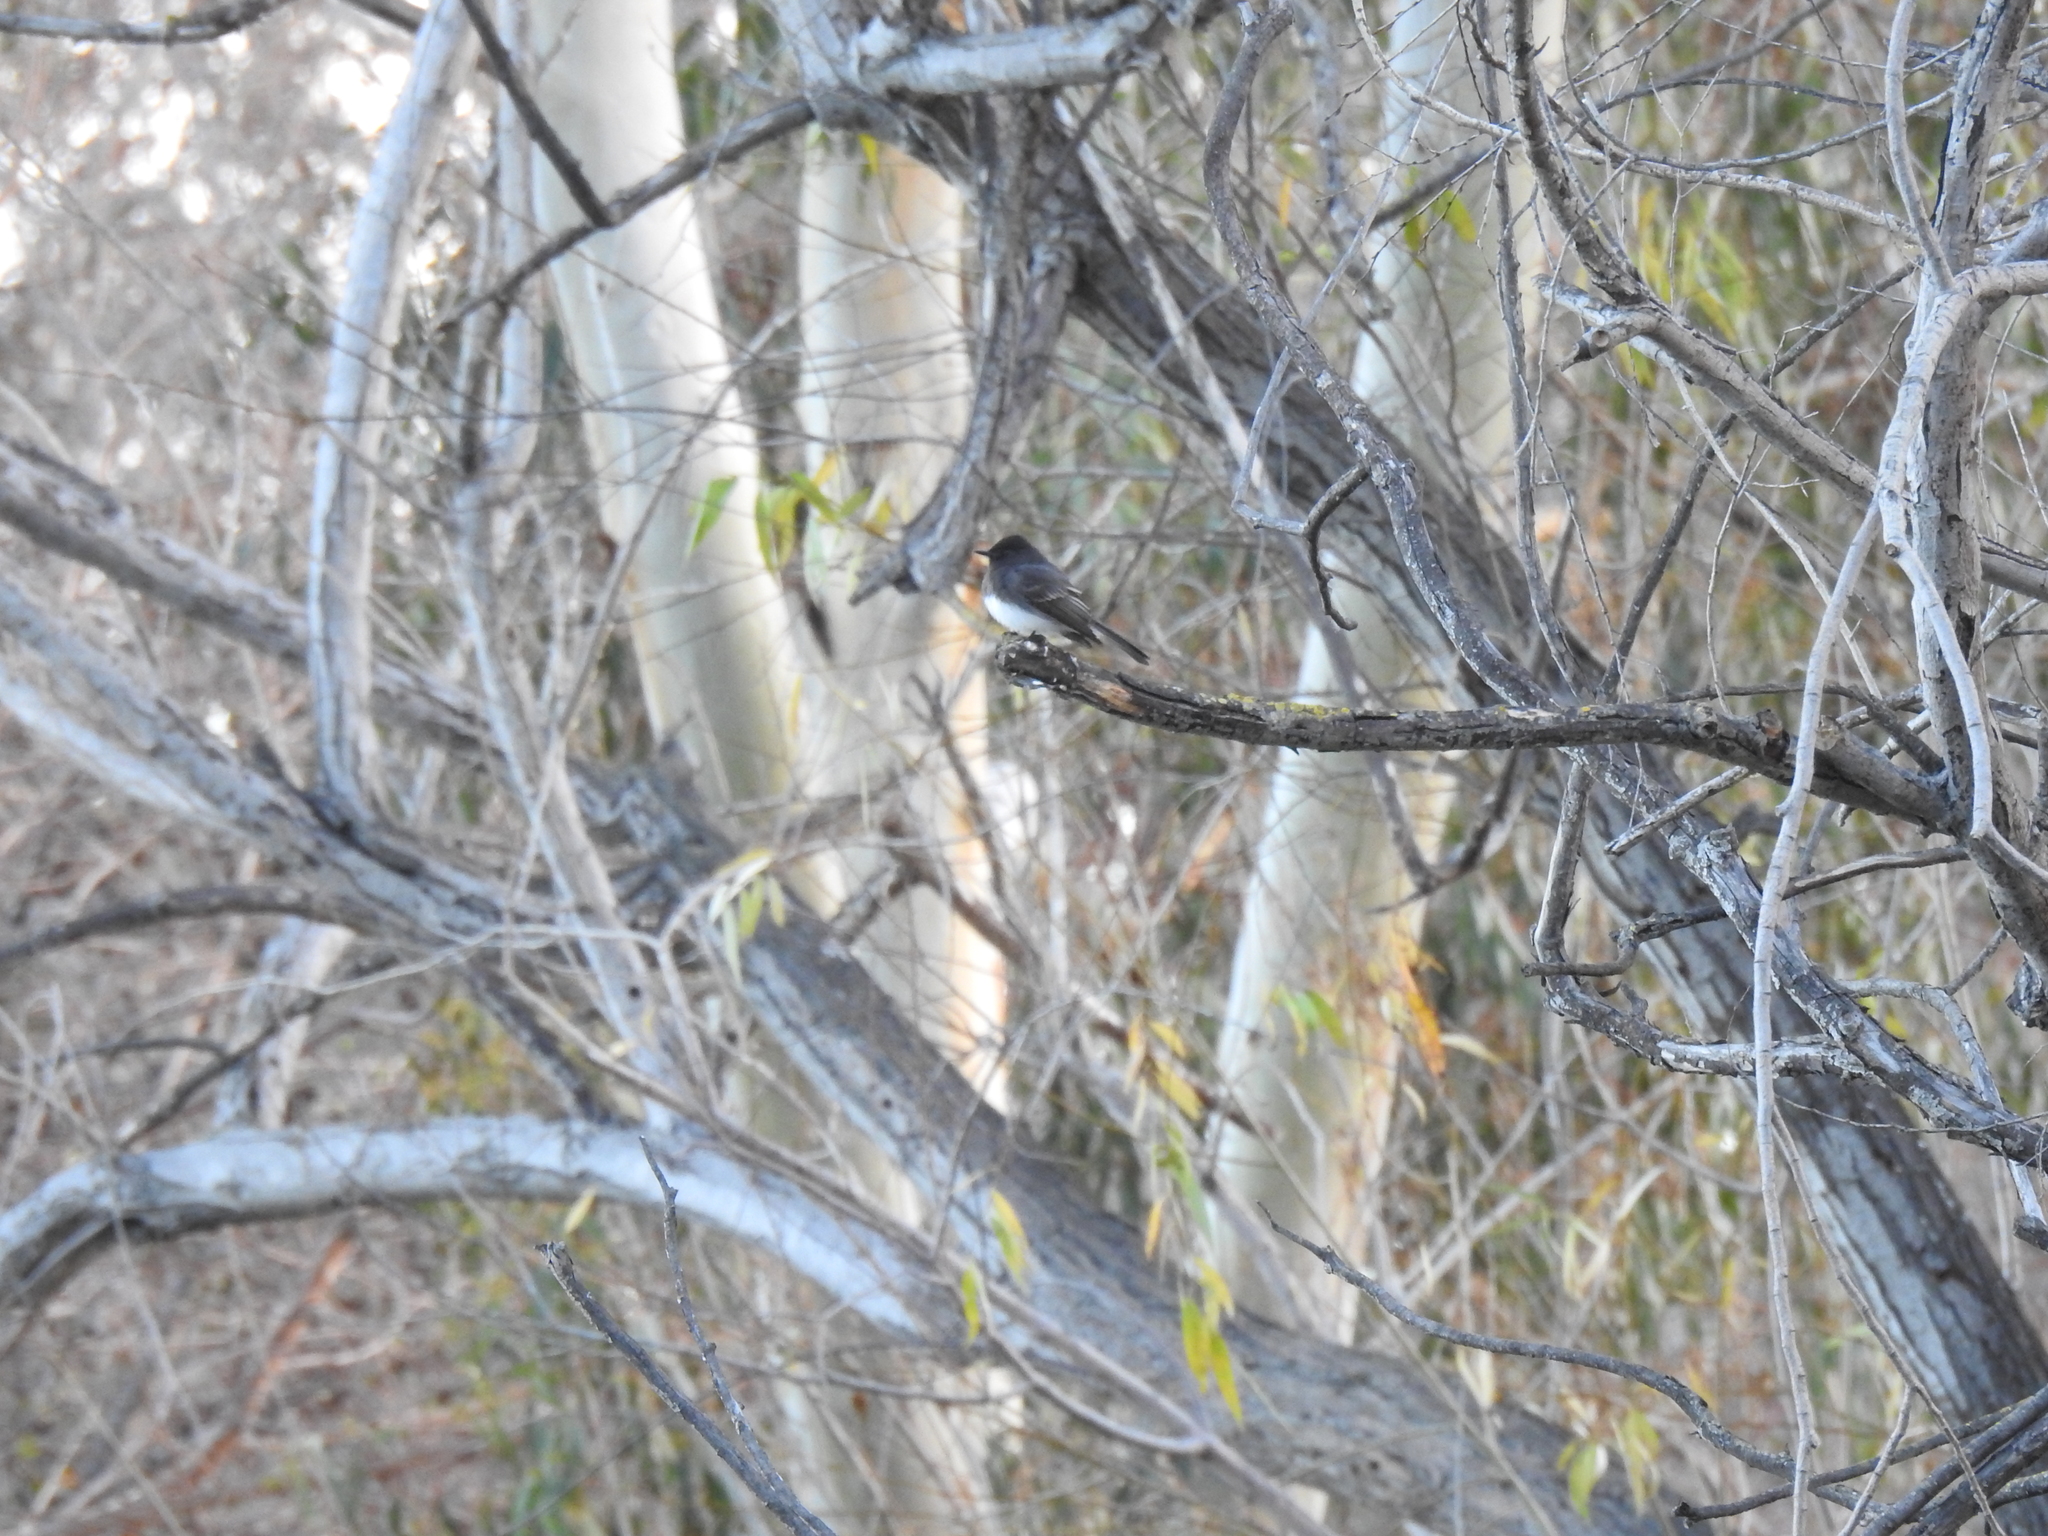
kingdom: Animalia
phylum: Chordata
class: Aves
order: Passeriformes
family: Tyrannidae
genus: Sayornis
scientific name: Sayornis nigricans
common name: Black phoebe
